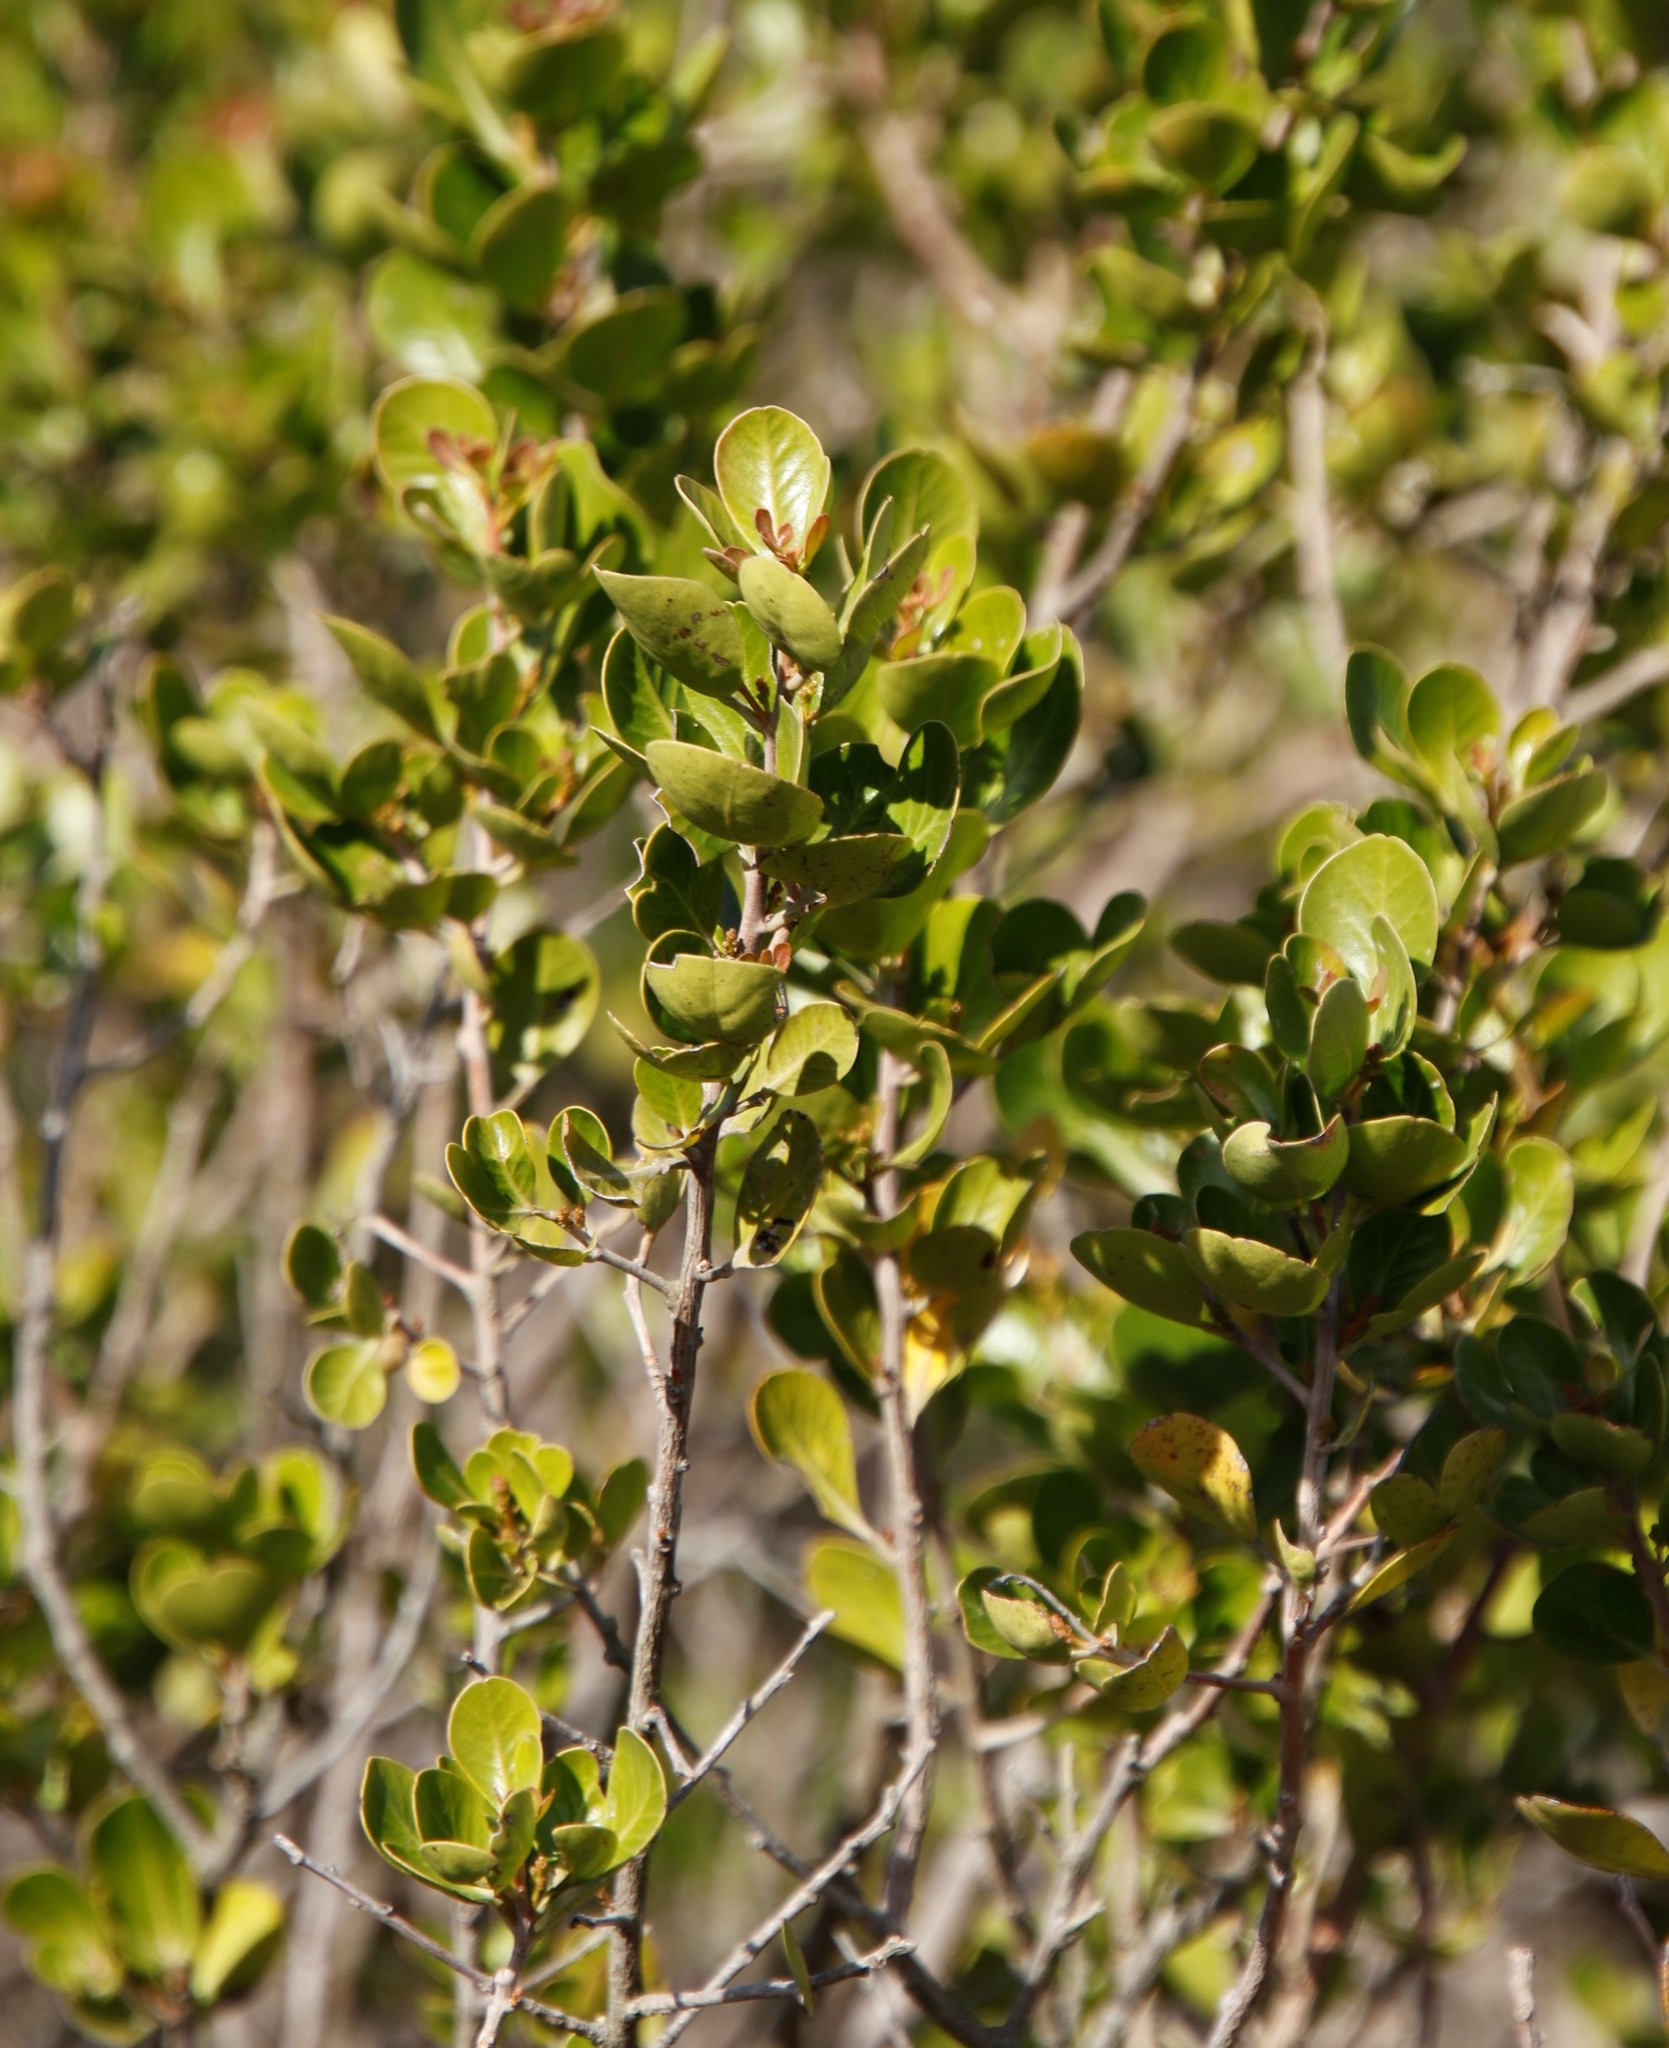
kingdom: Plantae
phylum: Tracheophyta
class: Magnoliopsida
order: Sapindales
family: Anacardiaceae
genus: Searsia
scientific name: Searsia lucida
